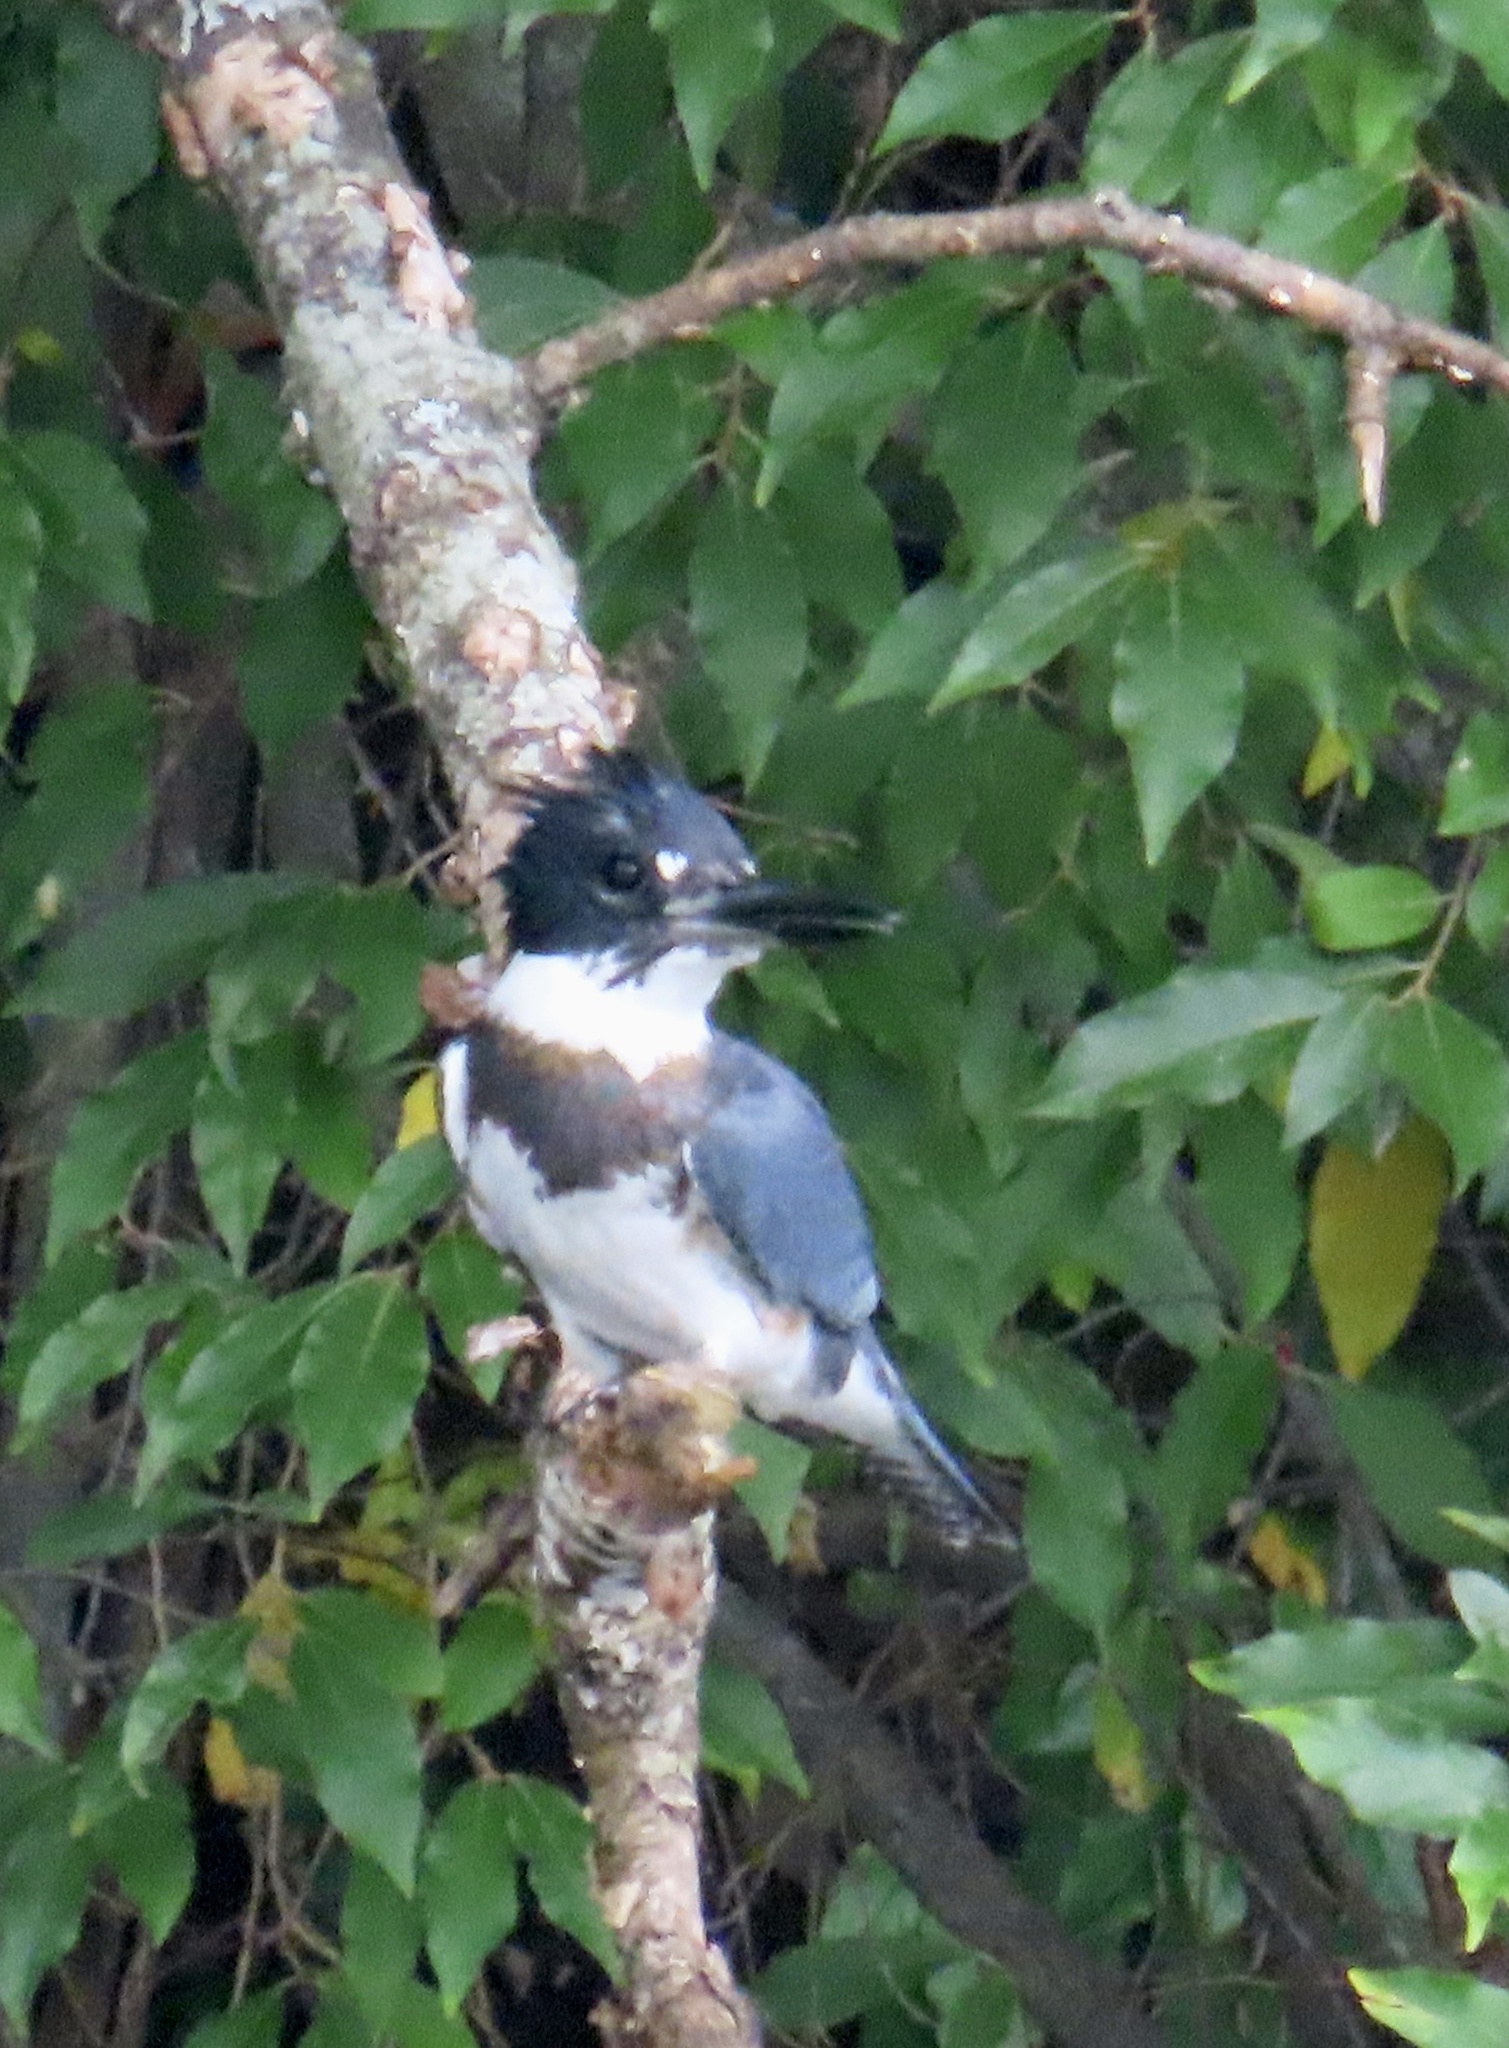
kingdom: Animalia
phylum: Chordata
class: Aves
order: Coraciiformes
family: Alcedinidae
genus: Megaceryle
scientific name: Megaceryle alcyon
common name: Belted kingfisher
